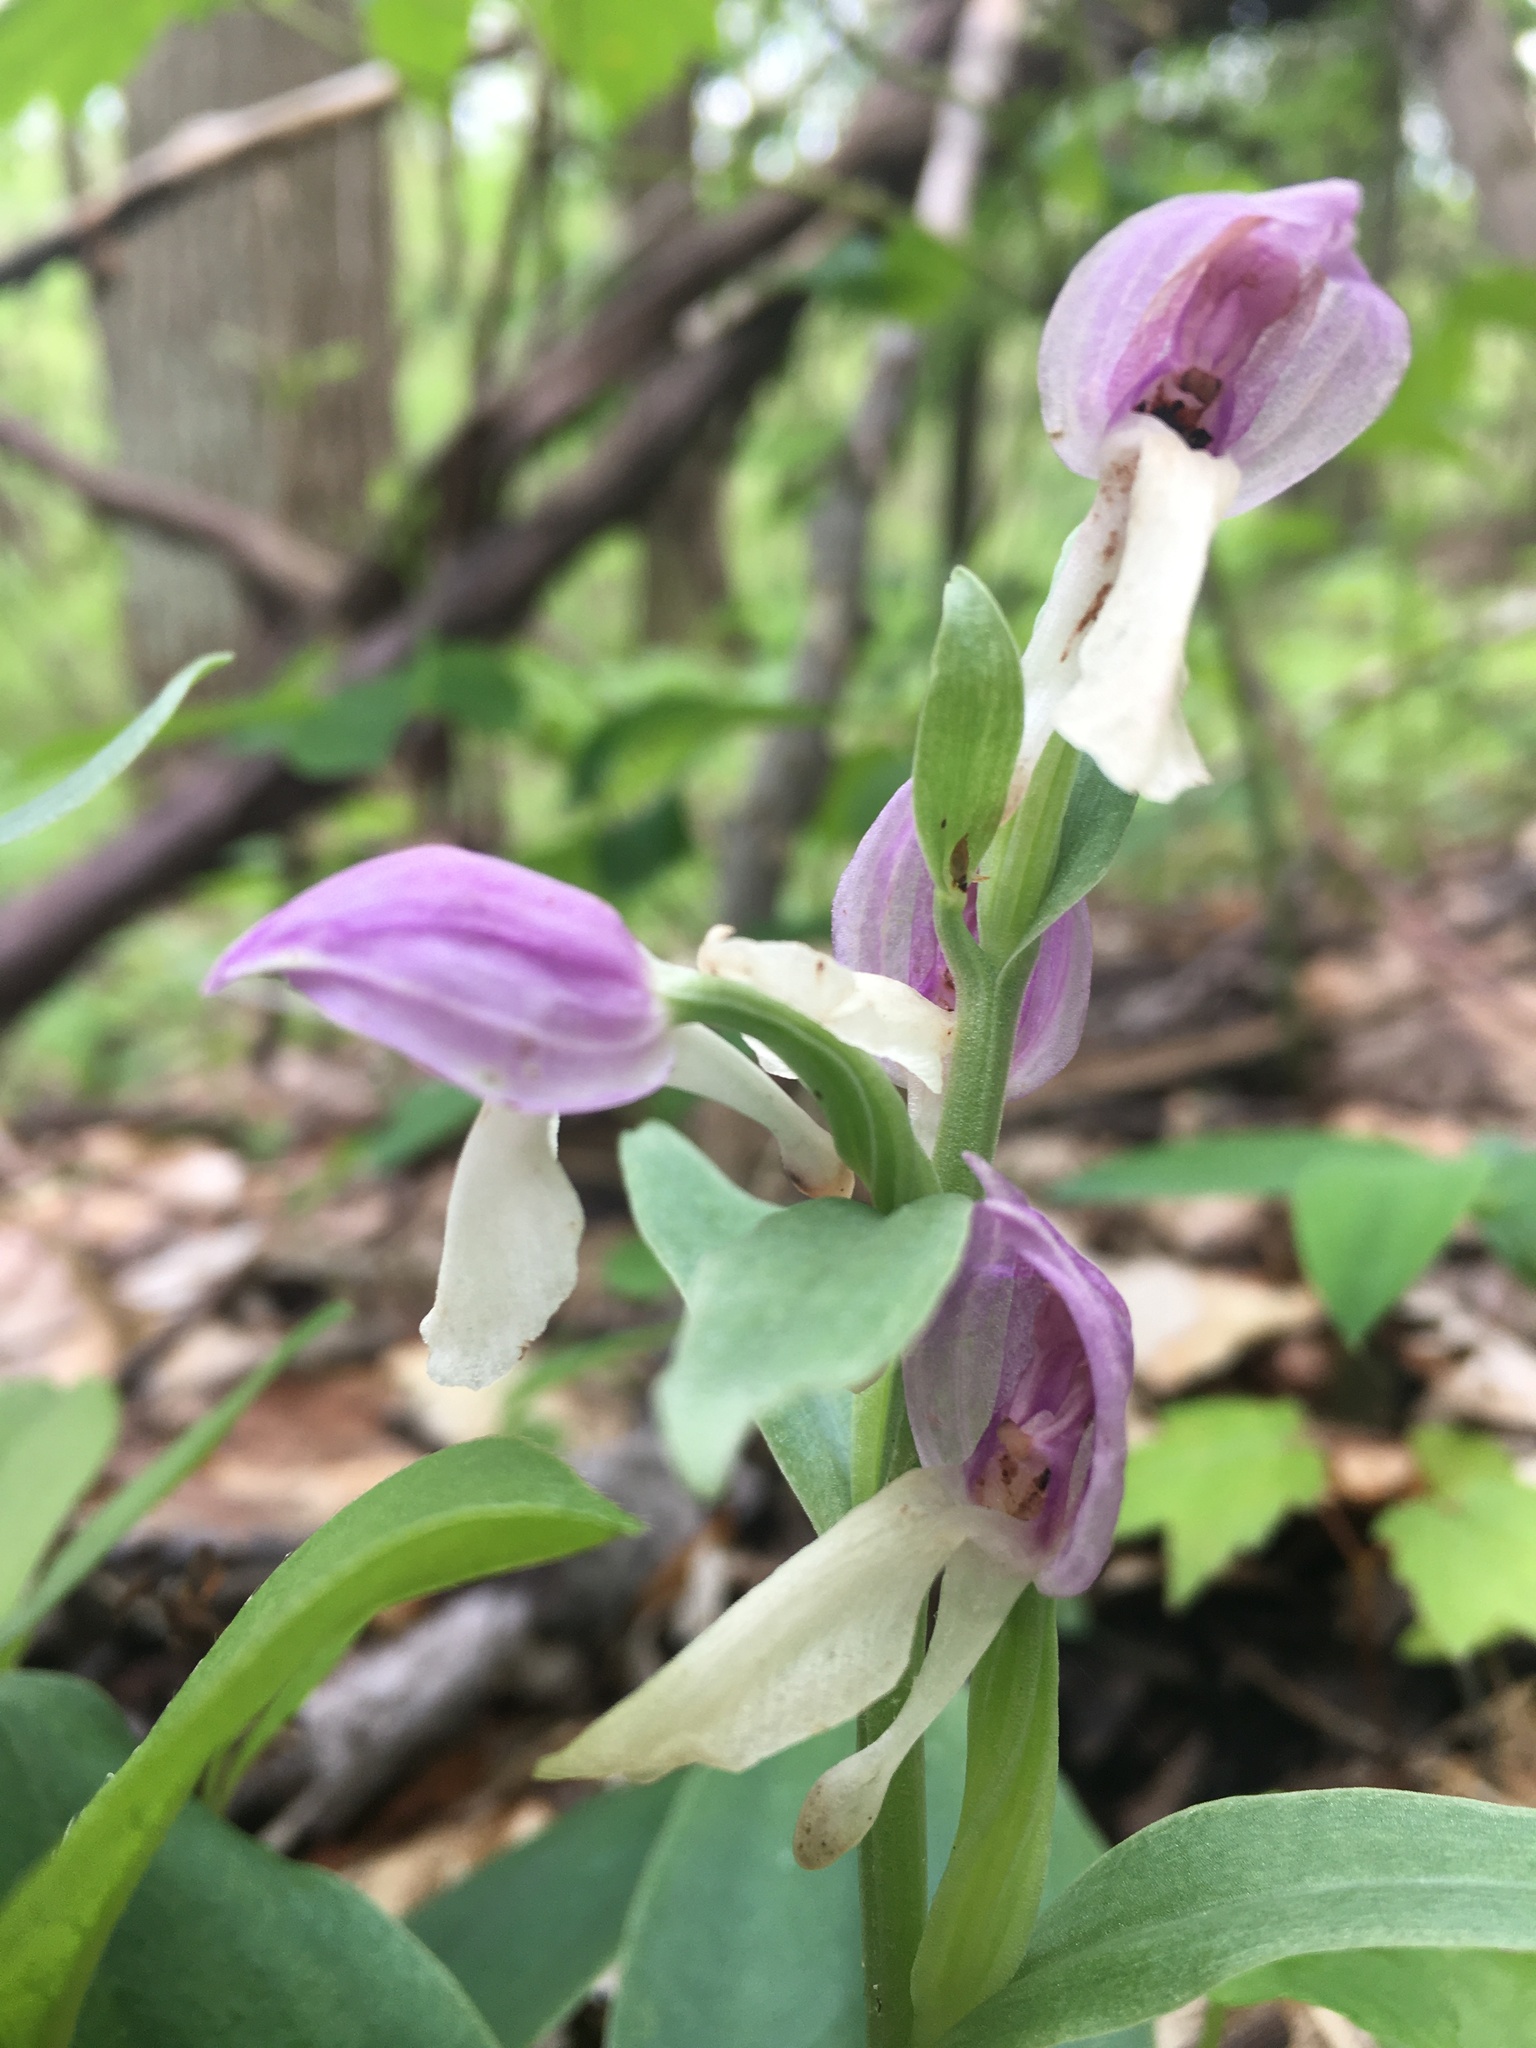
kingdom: Plantae
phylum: Tracheophyta
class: Liliopsida
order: Asparagales
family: Orchidaceae
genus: Galearis
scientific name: Galearis spectabilis
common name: Purple-hooded orchis
